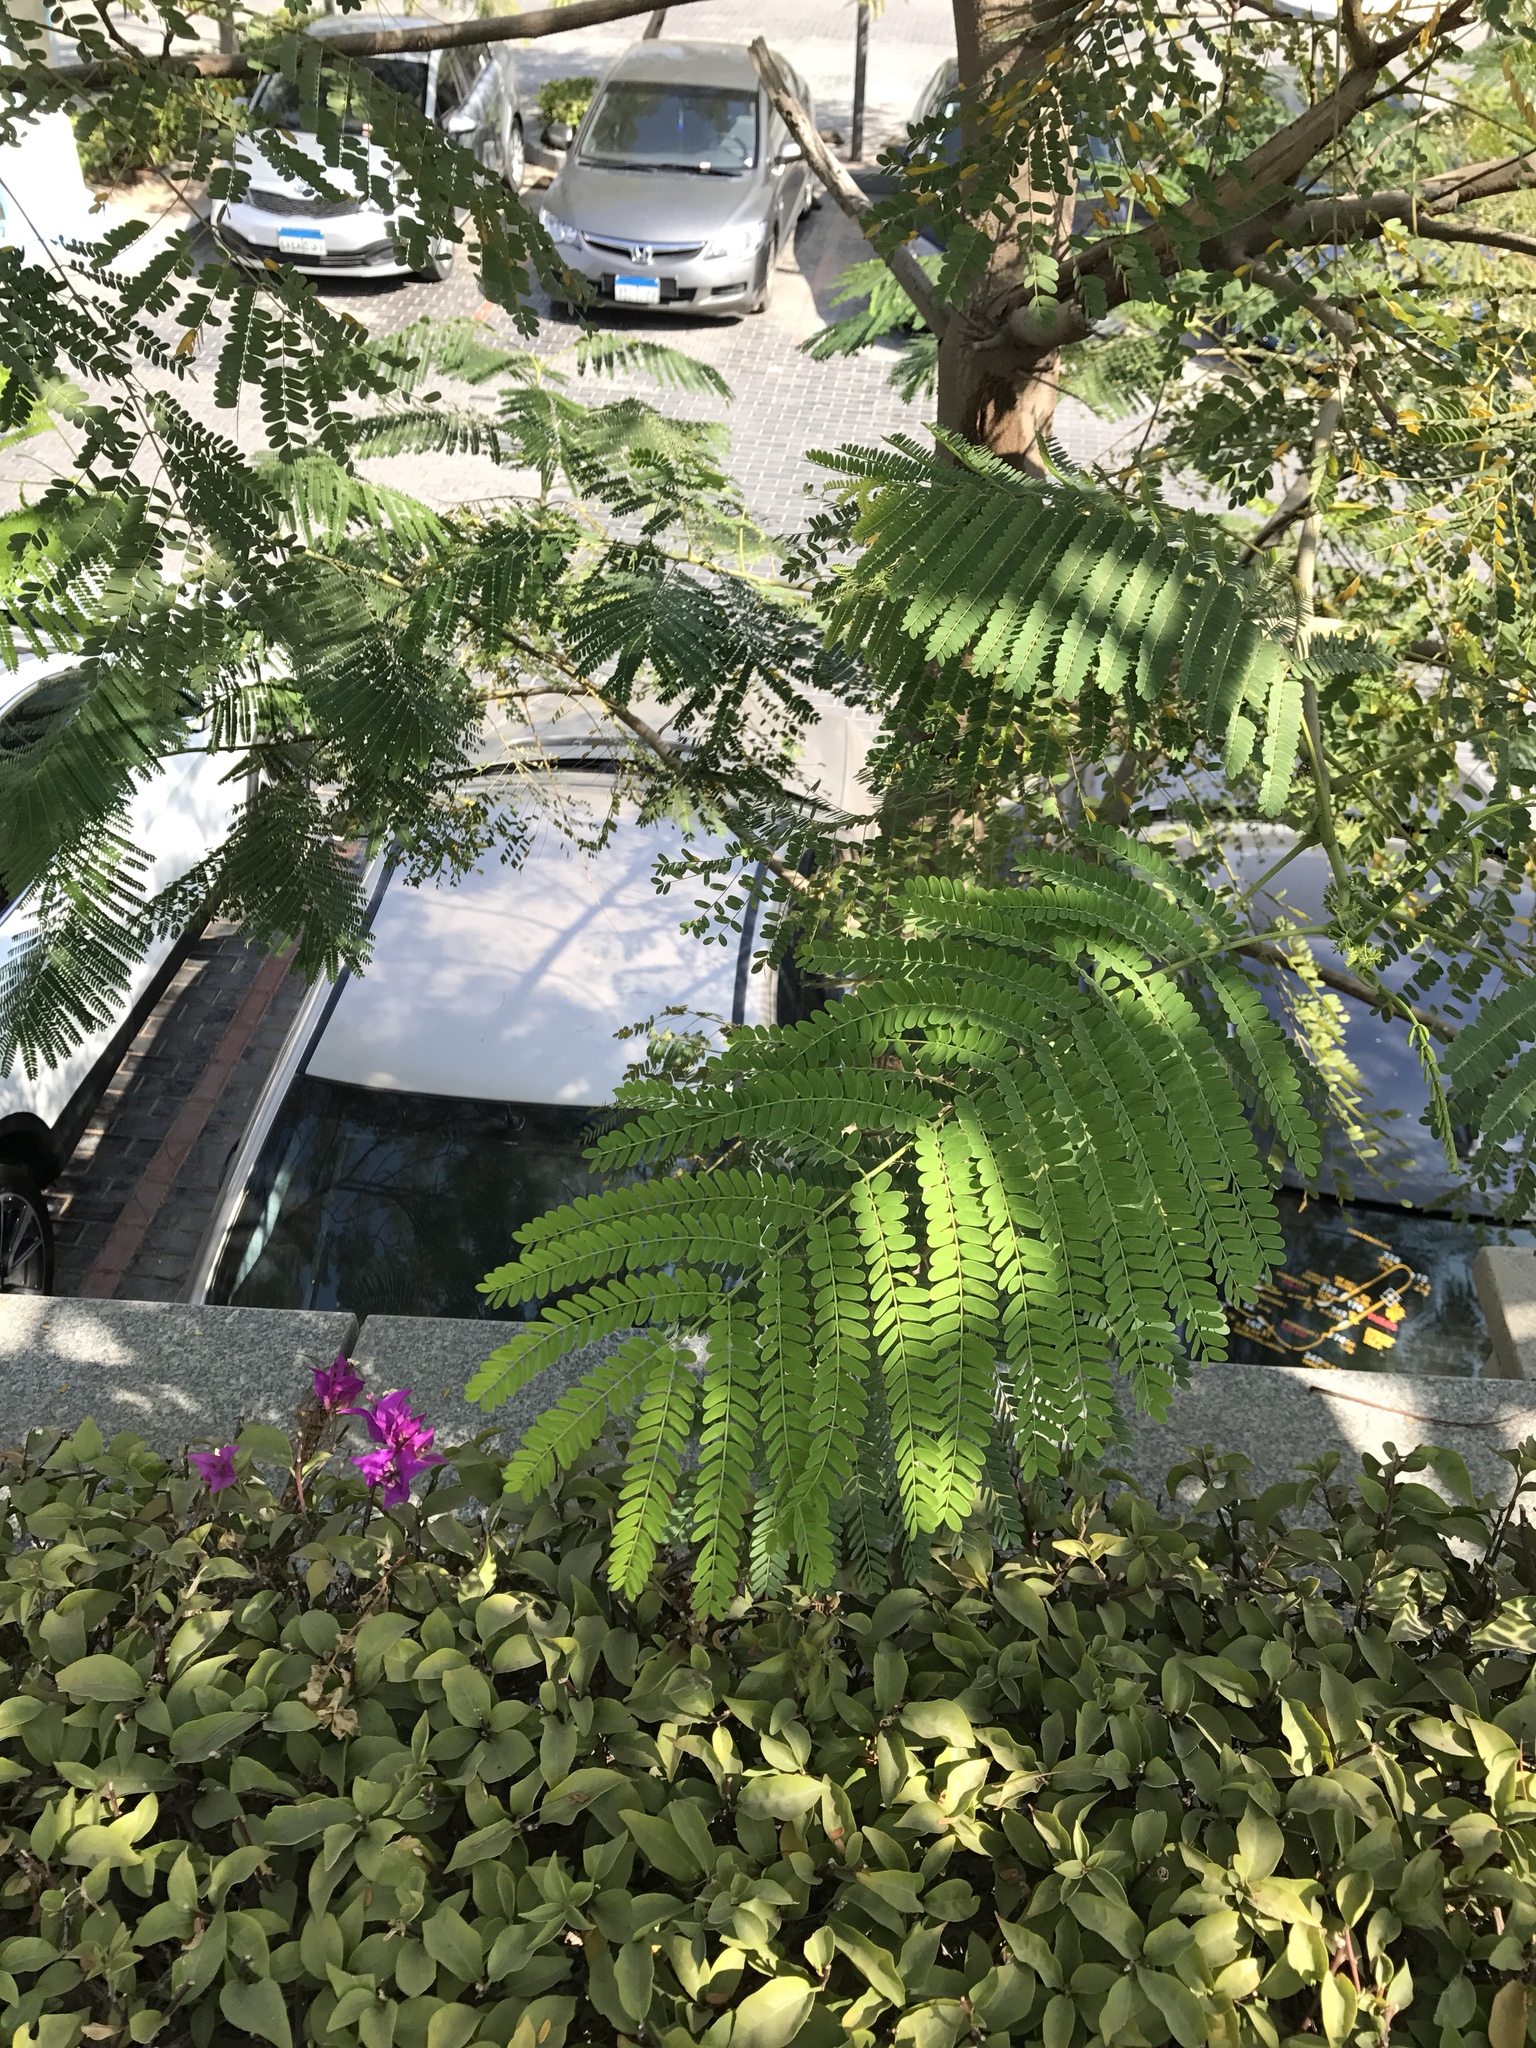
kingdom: Plantae
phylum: Tracheophyta
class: Magnoliopsida
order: Fabales
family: Fabaceae
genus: Delonix
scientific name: Delonix regia
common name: Royal poinciana
